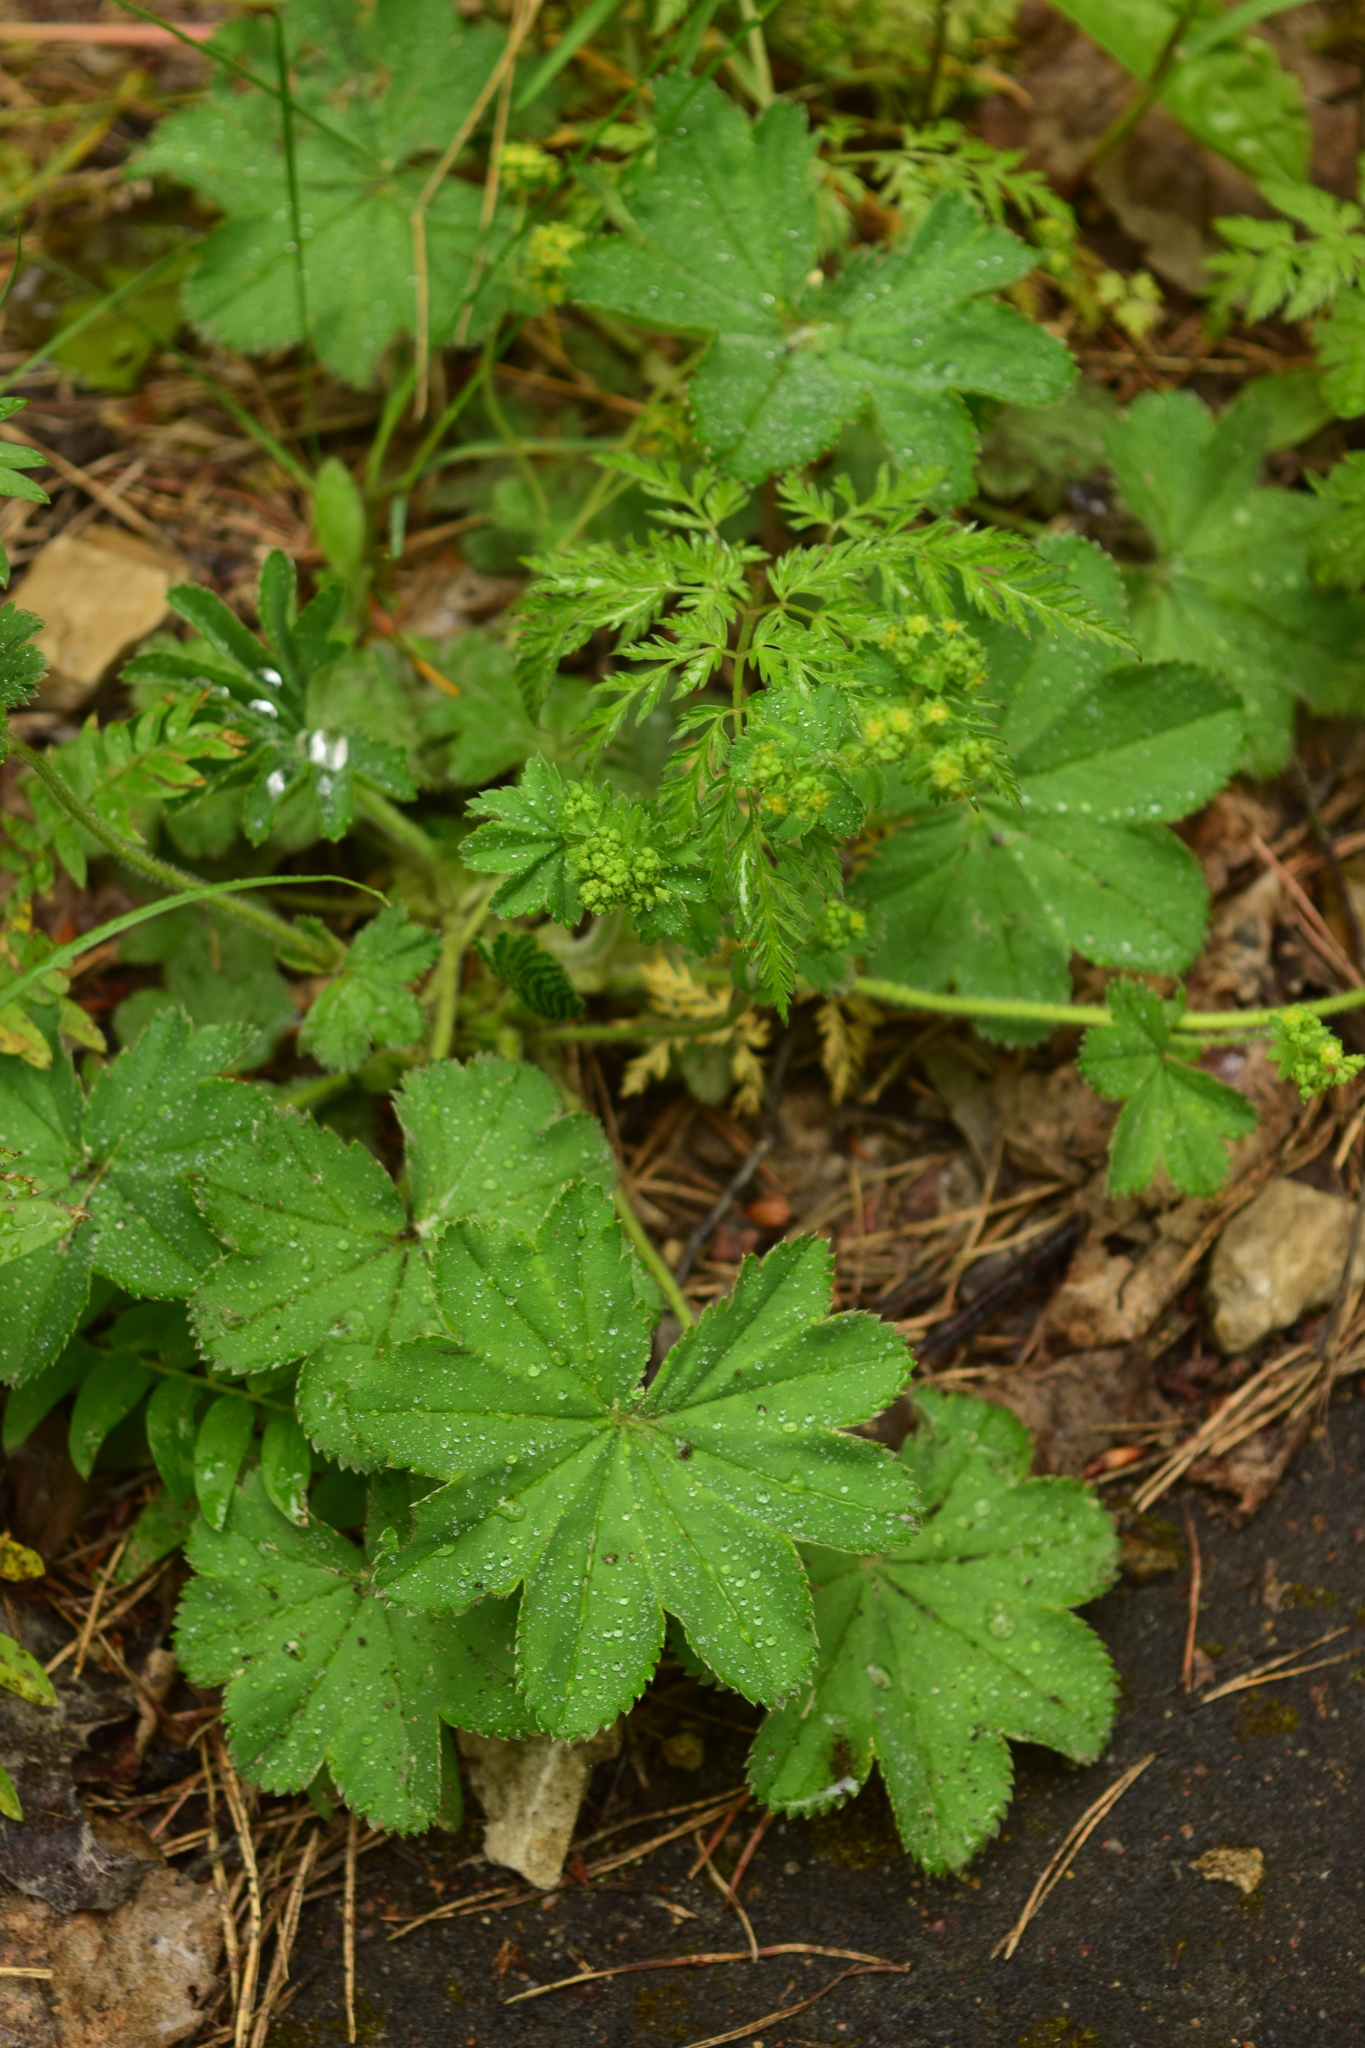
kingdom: Plantae
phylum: Tracheophyta
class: Magnoliopsida
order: Rosales
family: Rosaceae
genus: Alchemilla
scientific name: Alchemilla
